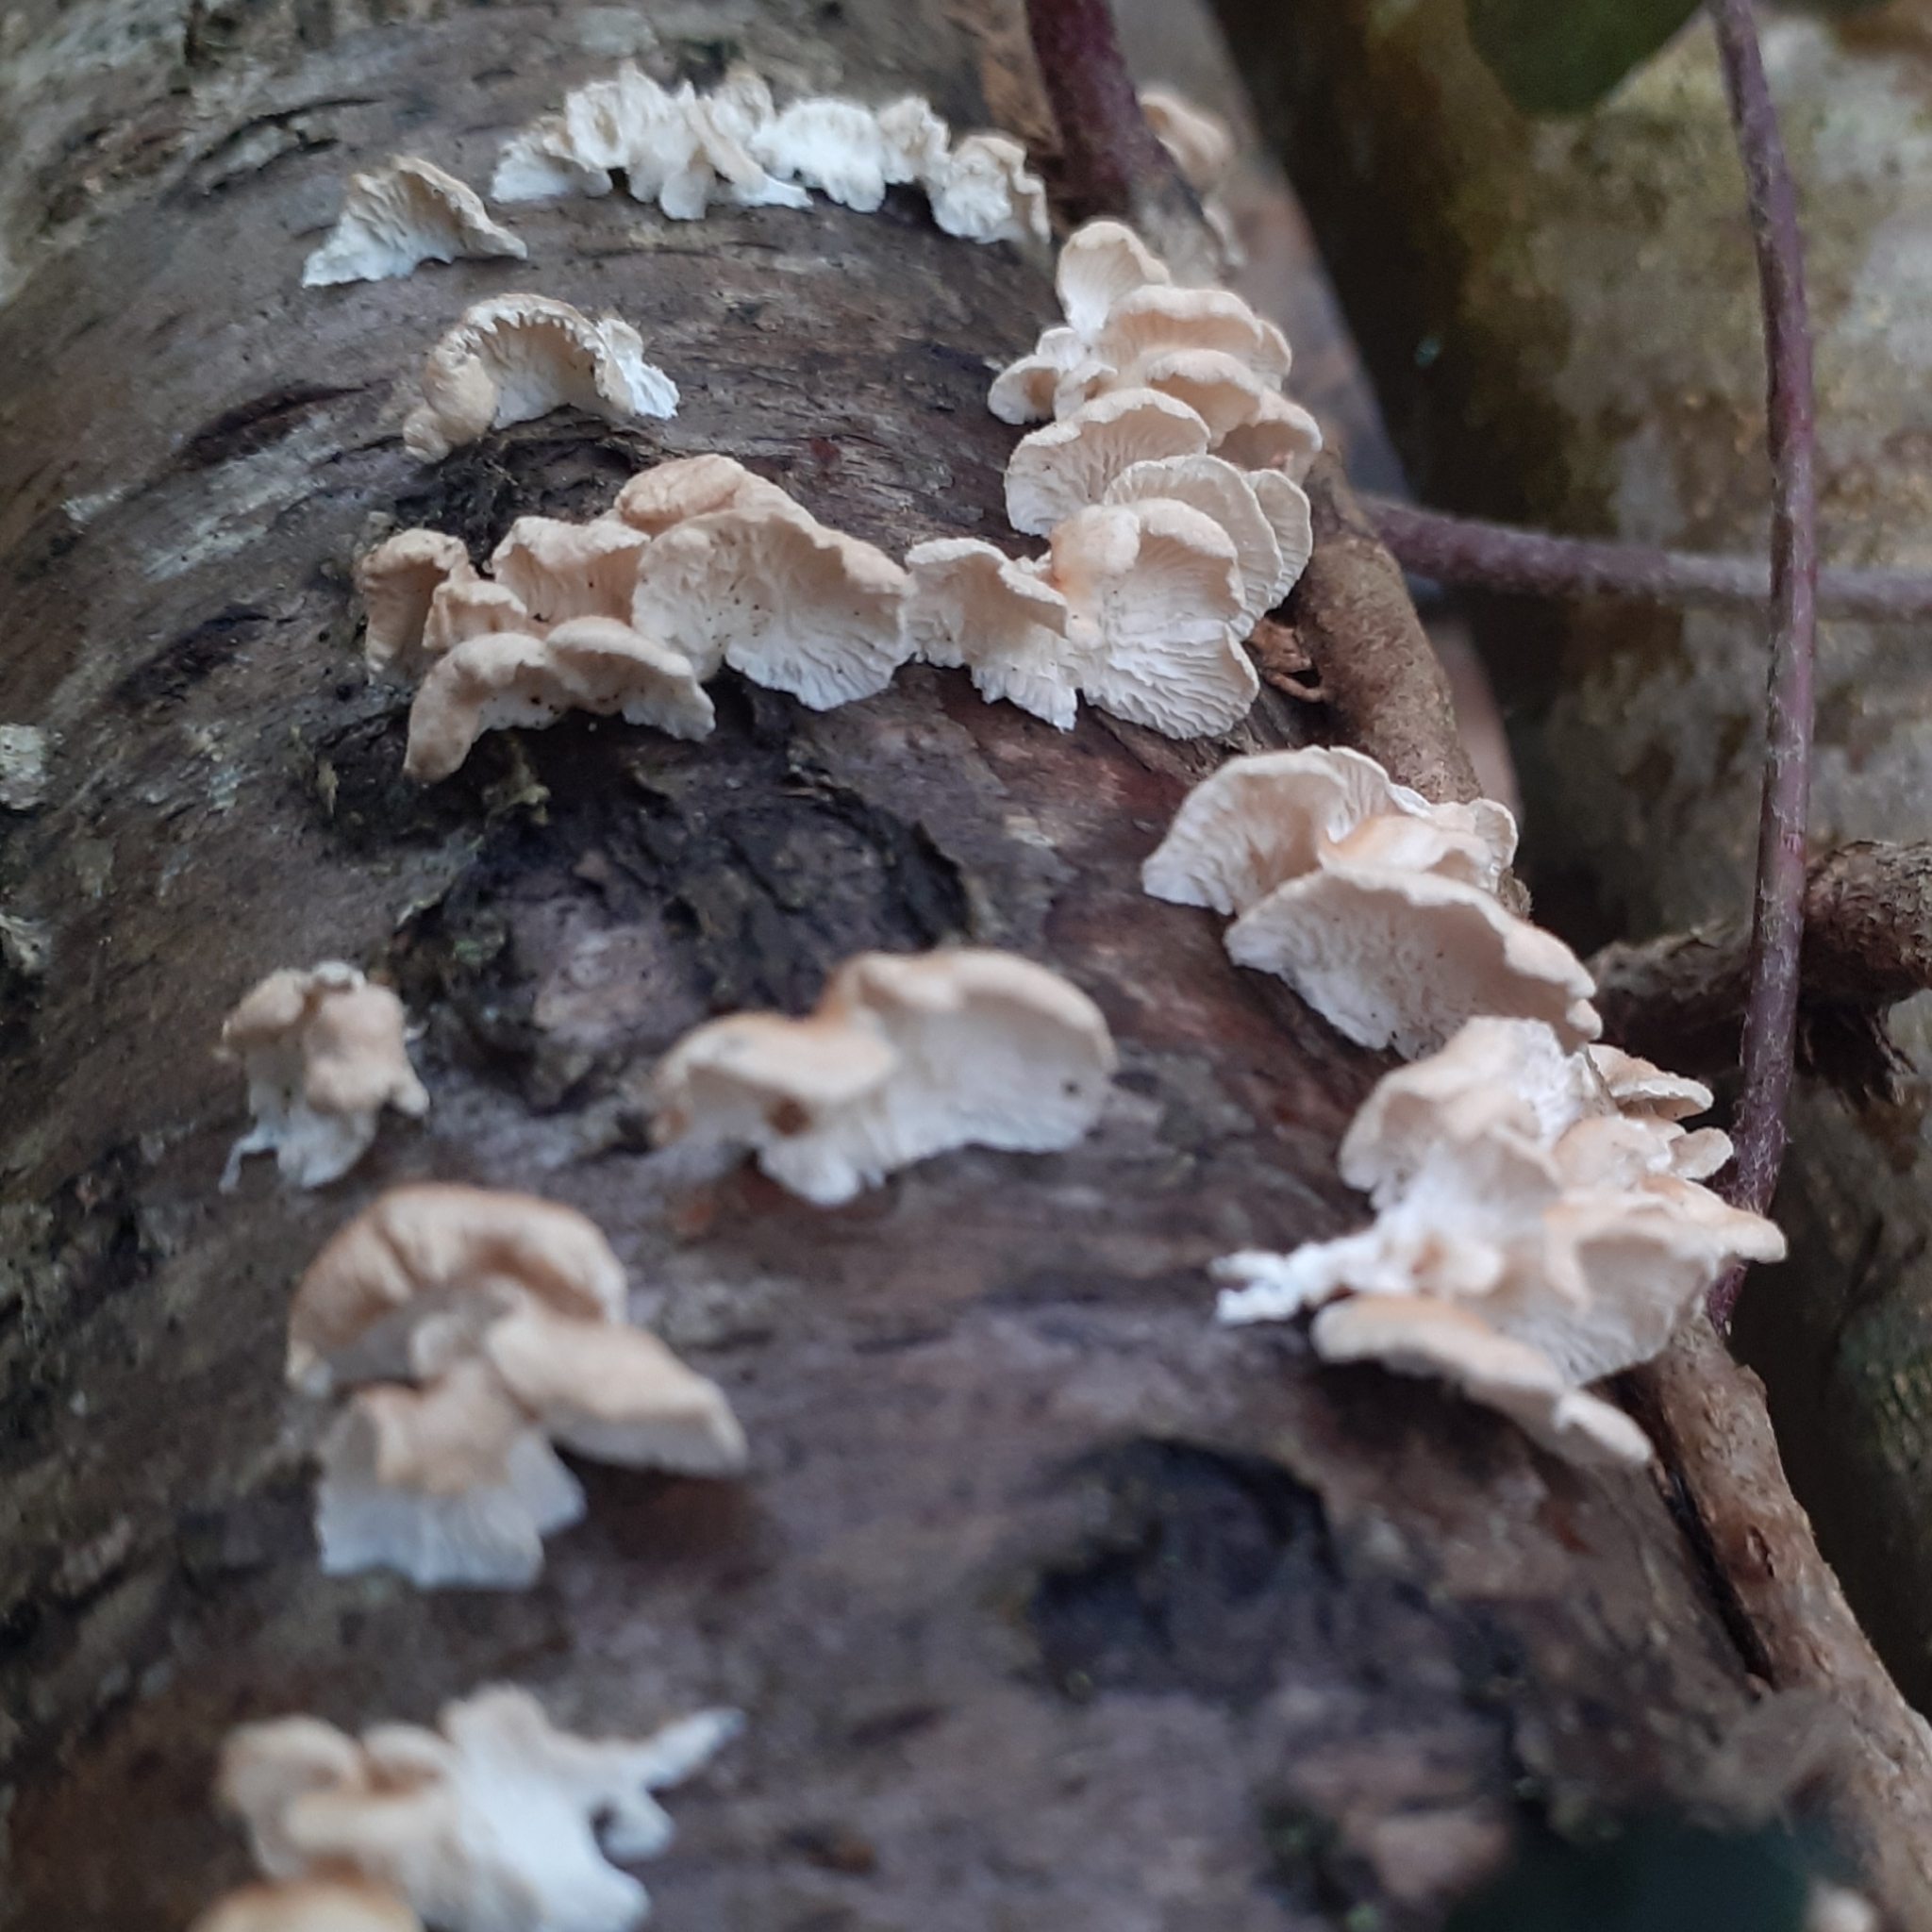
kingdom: Fungi
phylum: Basidiomycota
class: Agaricomycetes
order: Amylocorticiales
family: Amylocorticiaceae
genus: Plicaturopsis
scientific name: Plicaturopsis crispa
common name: Crimped gill
